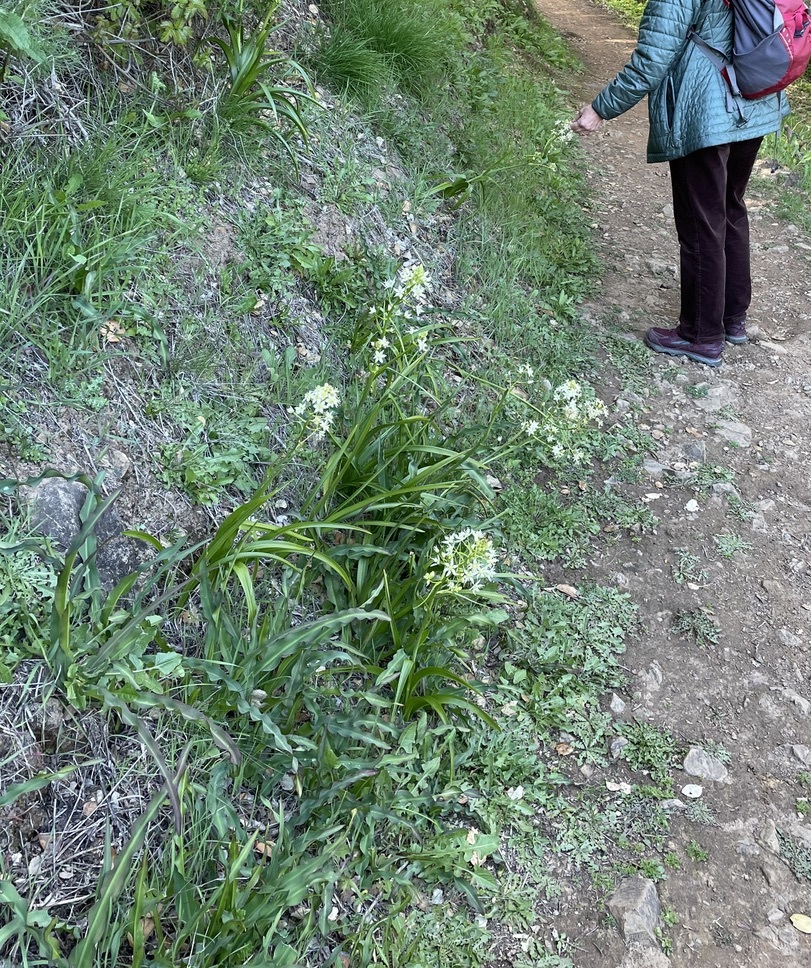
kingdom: Plantae
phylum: Tracheophyta
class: Liliopsida
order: Liliales
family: Melanthiaceae
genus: Toxicoscordion
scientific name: Toxicoscordion fremontii
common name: Fremont's death camas
